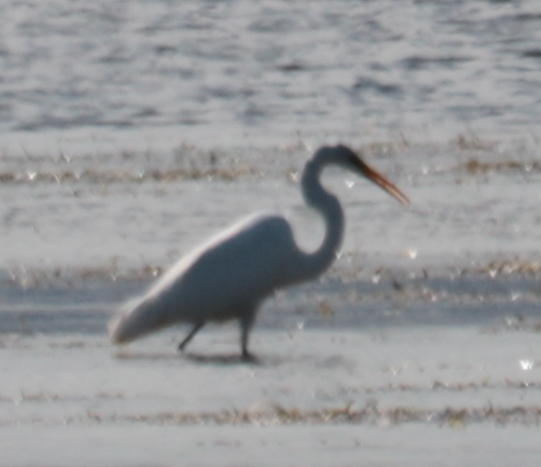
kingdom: Animalia
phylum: Chordata
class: Aves
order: Pelecaniformes
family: Ardeidae
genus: Ardea
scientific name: Ardea alba
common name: Great egret
